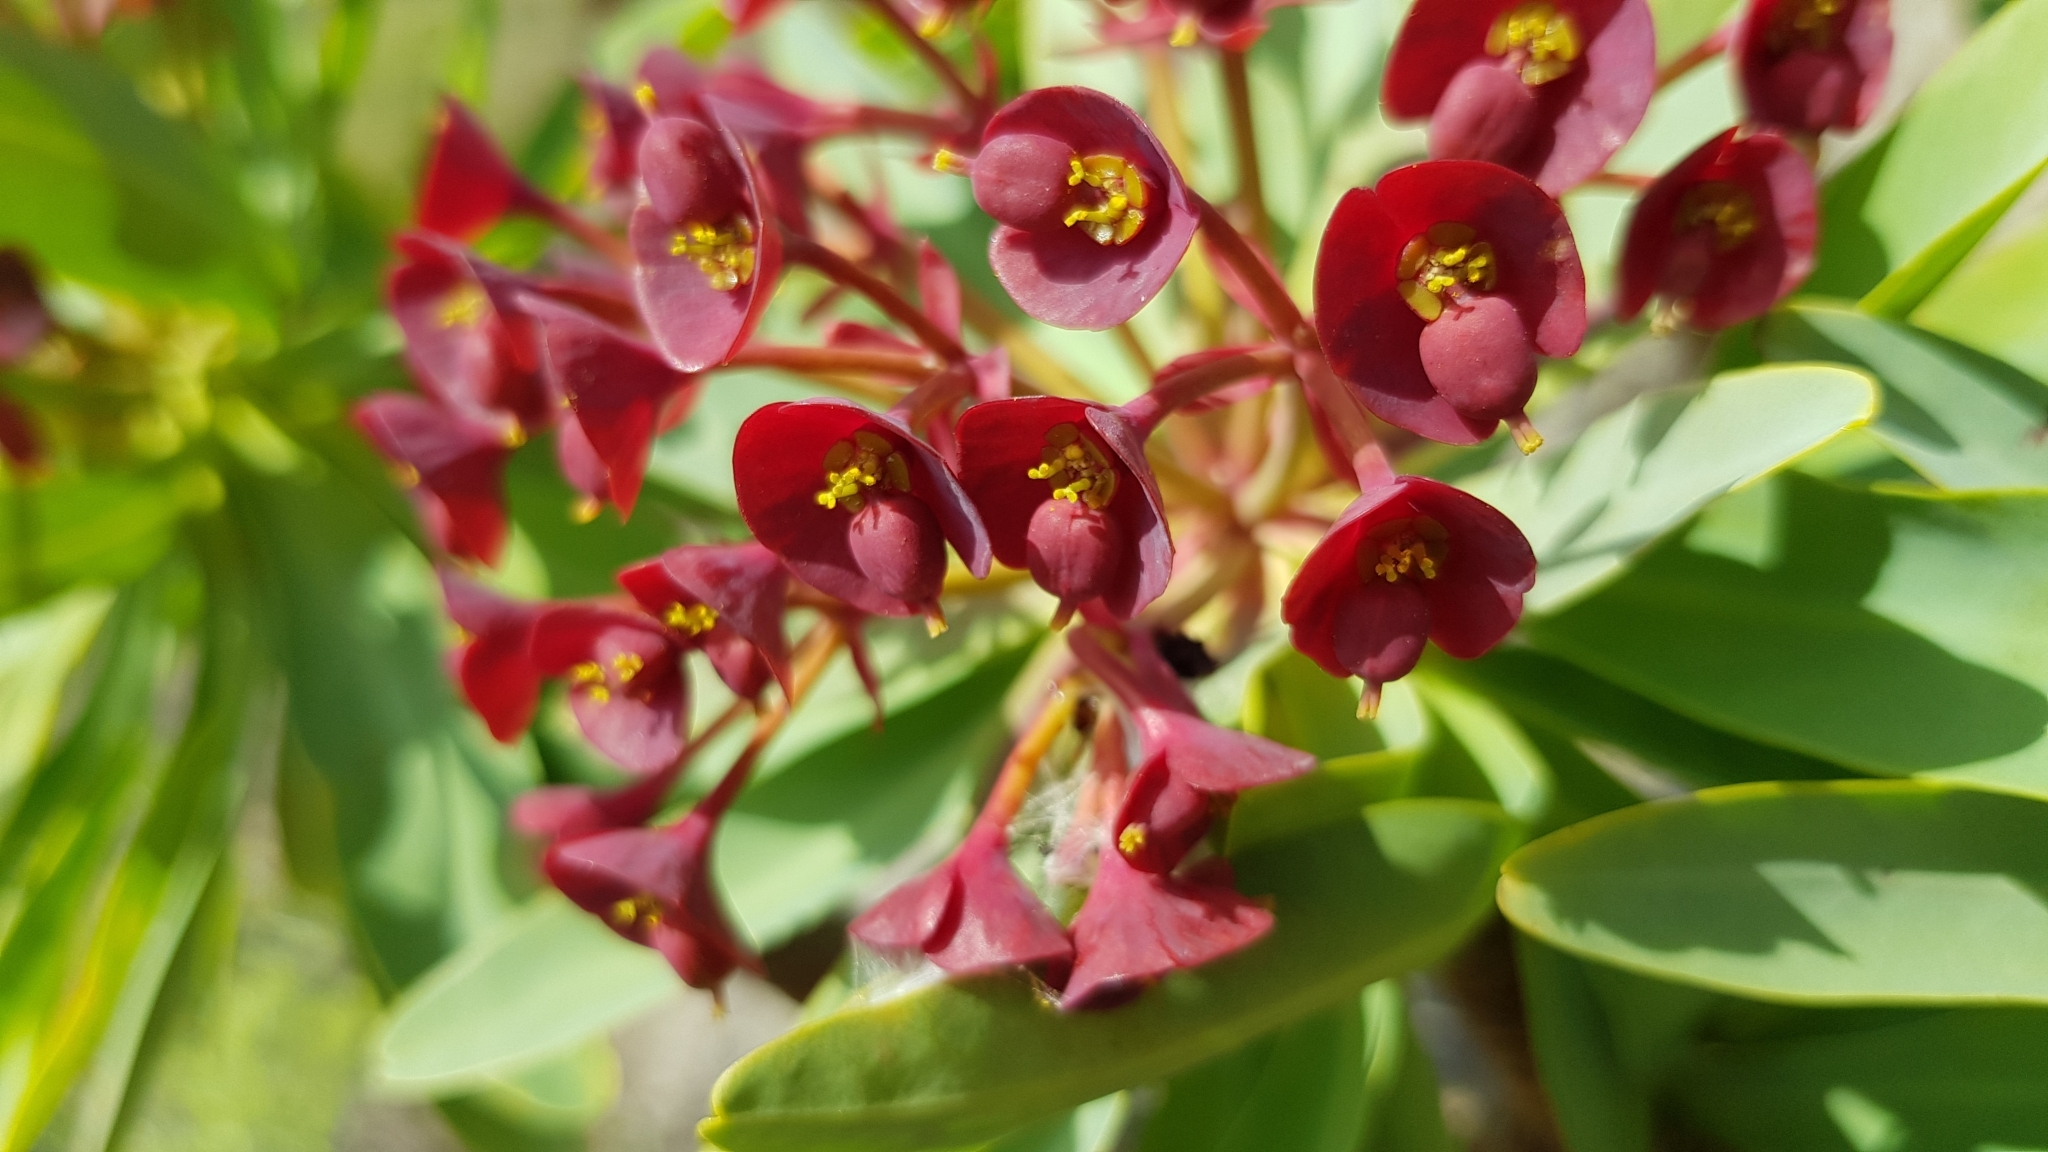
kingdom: Plantae
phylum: Tracheophyta
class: Magnoliopsida
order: Malpighiales
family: Euphorbiaceae
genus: Euphorbia
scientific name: Euphorbia atropurpurea
